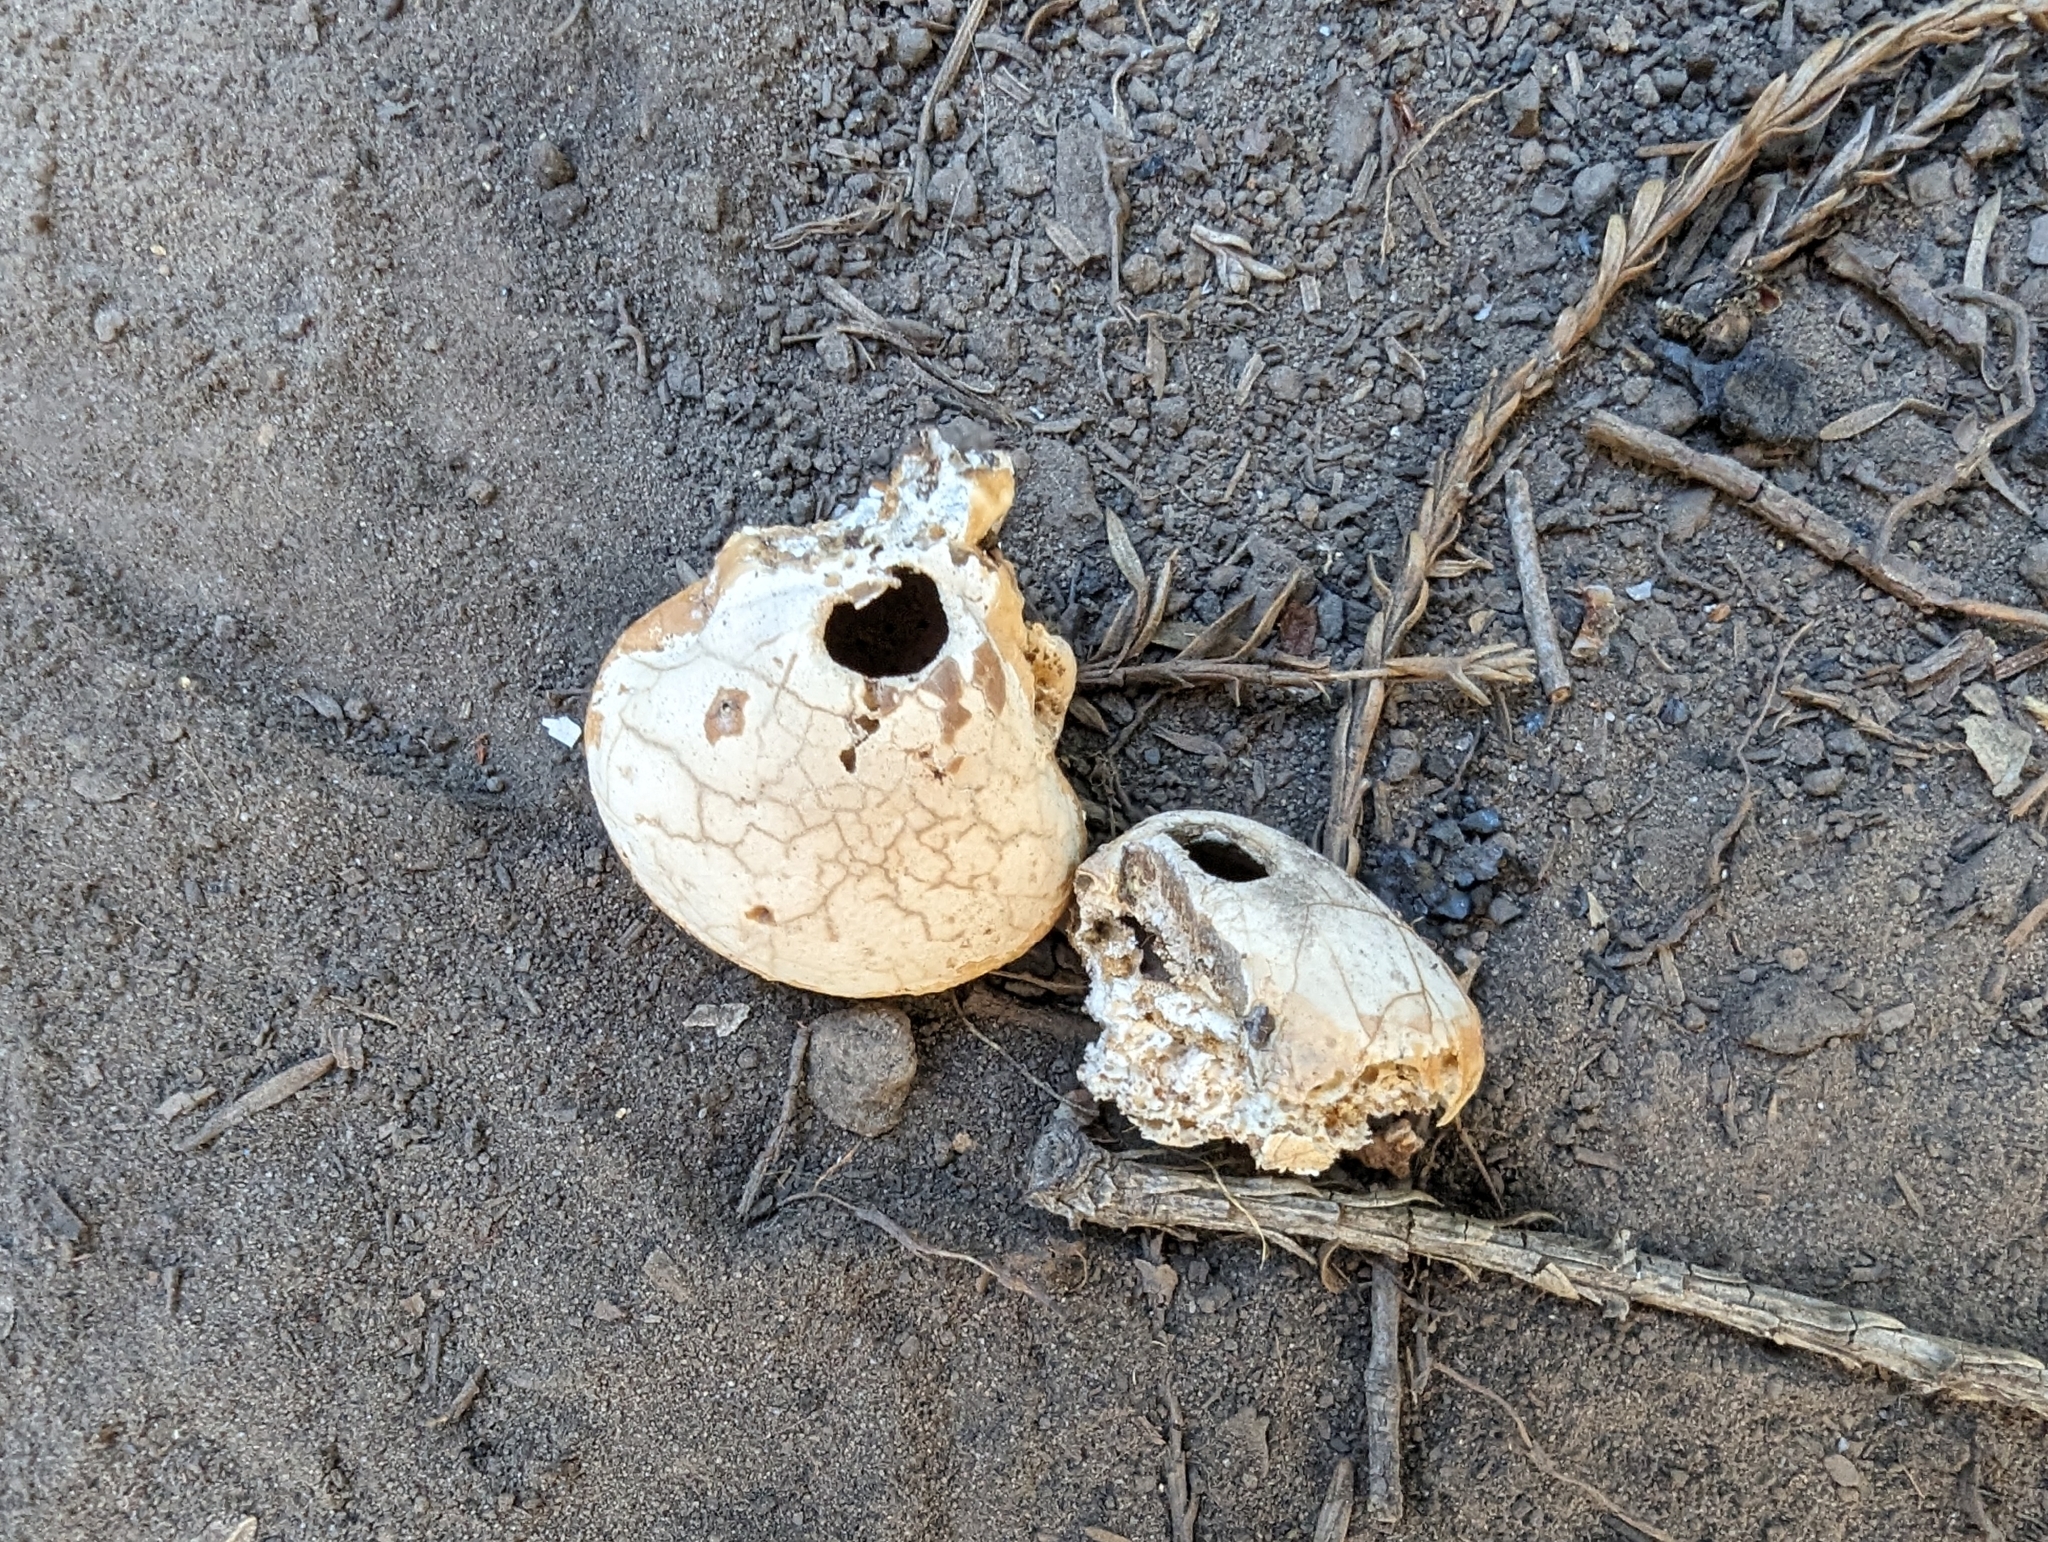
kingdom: Fungi
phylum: Basidiomycota
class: Agaricomycetes
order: Polyporales
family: Polyporaceae
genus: Cryptoporus
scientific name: Cryptoporus volvatus
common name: Veiled polypore
